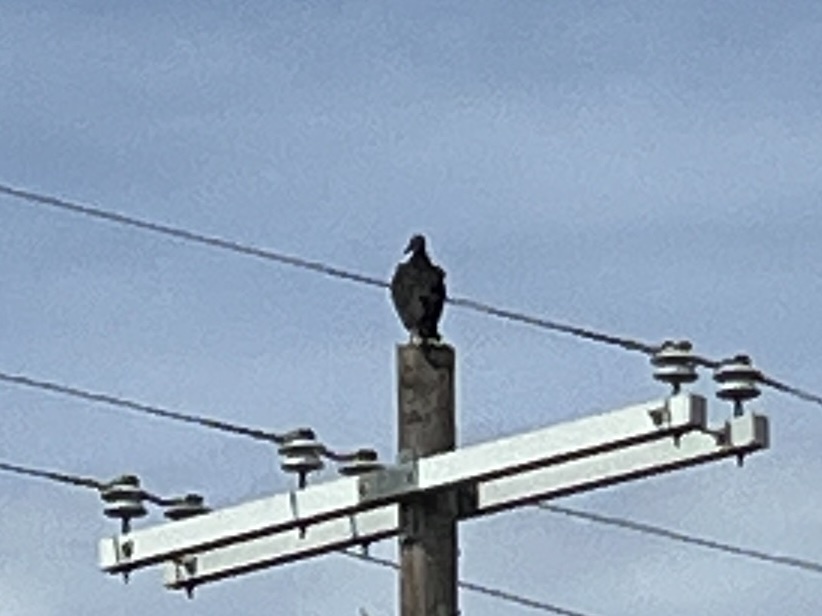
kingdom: Animalia
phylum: Chordata
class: Aves
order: Accipitriformes
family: Cathartidae
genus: Coragyps
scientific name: Coragyps atratus
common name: Black vulture
